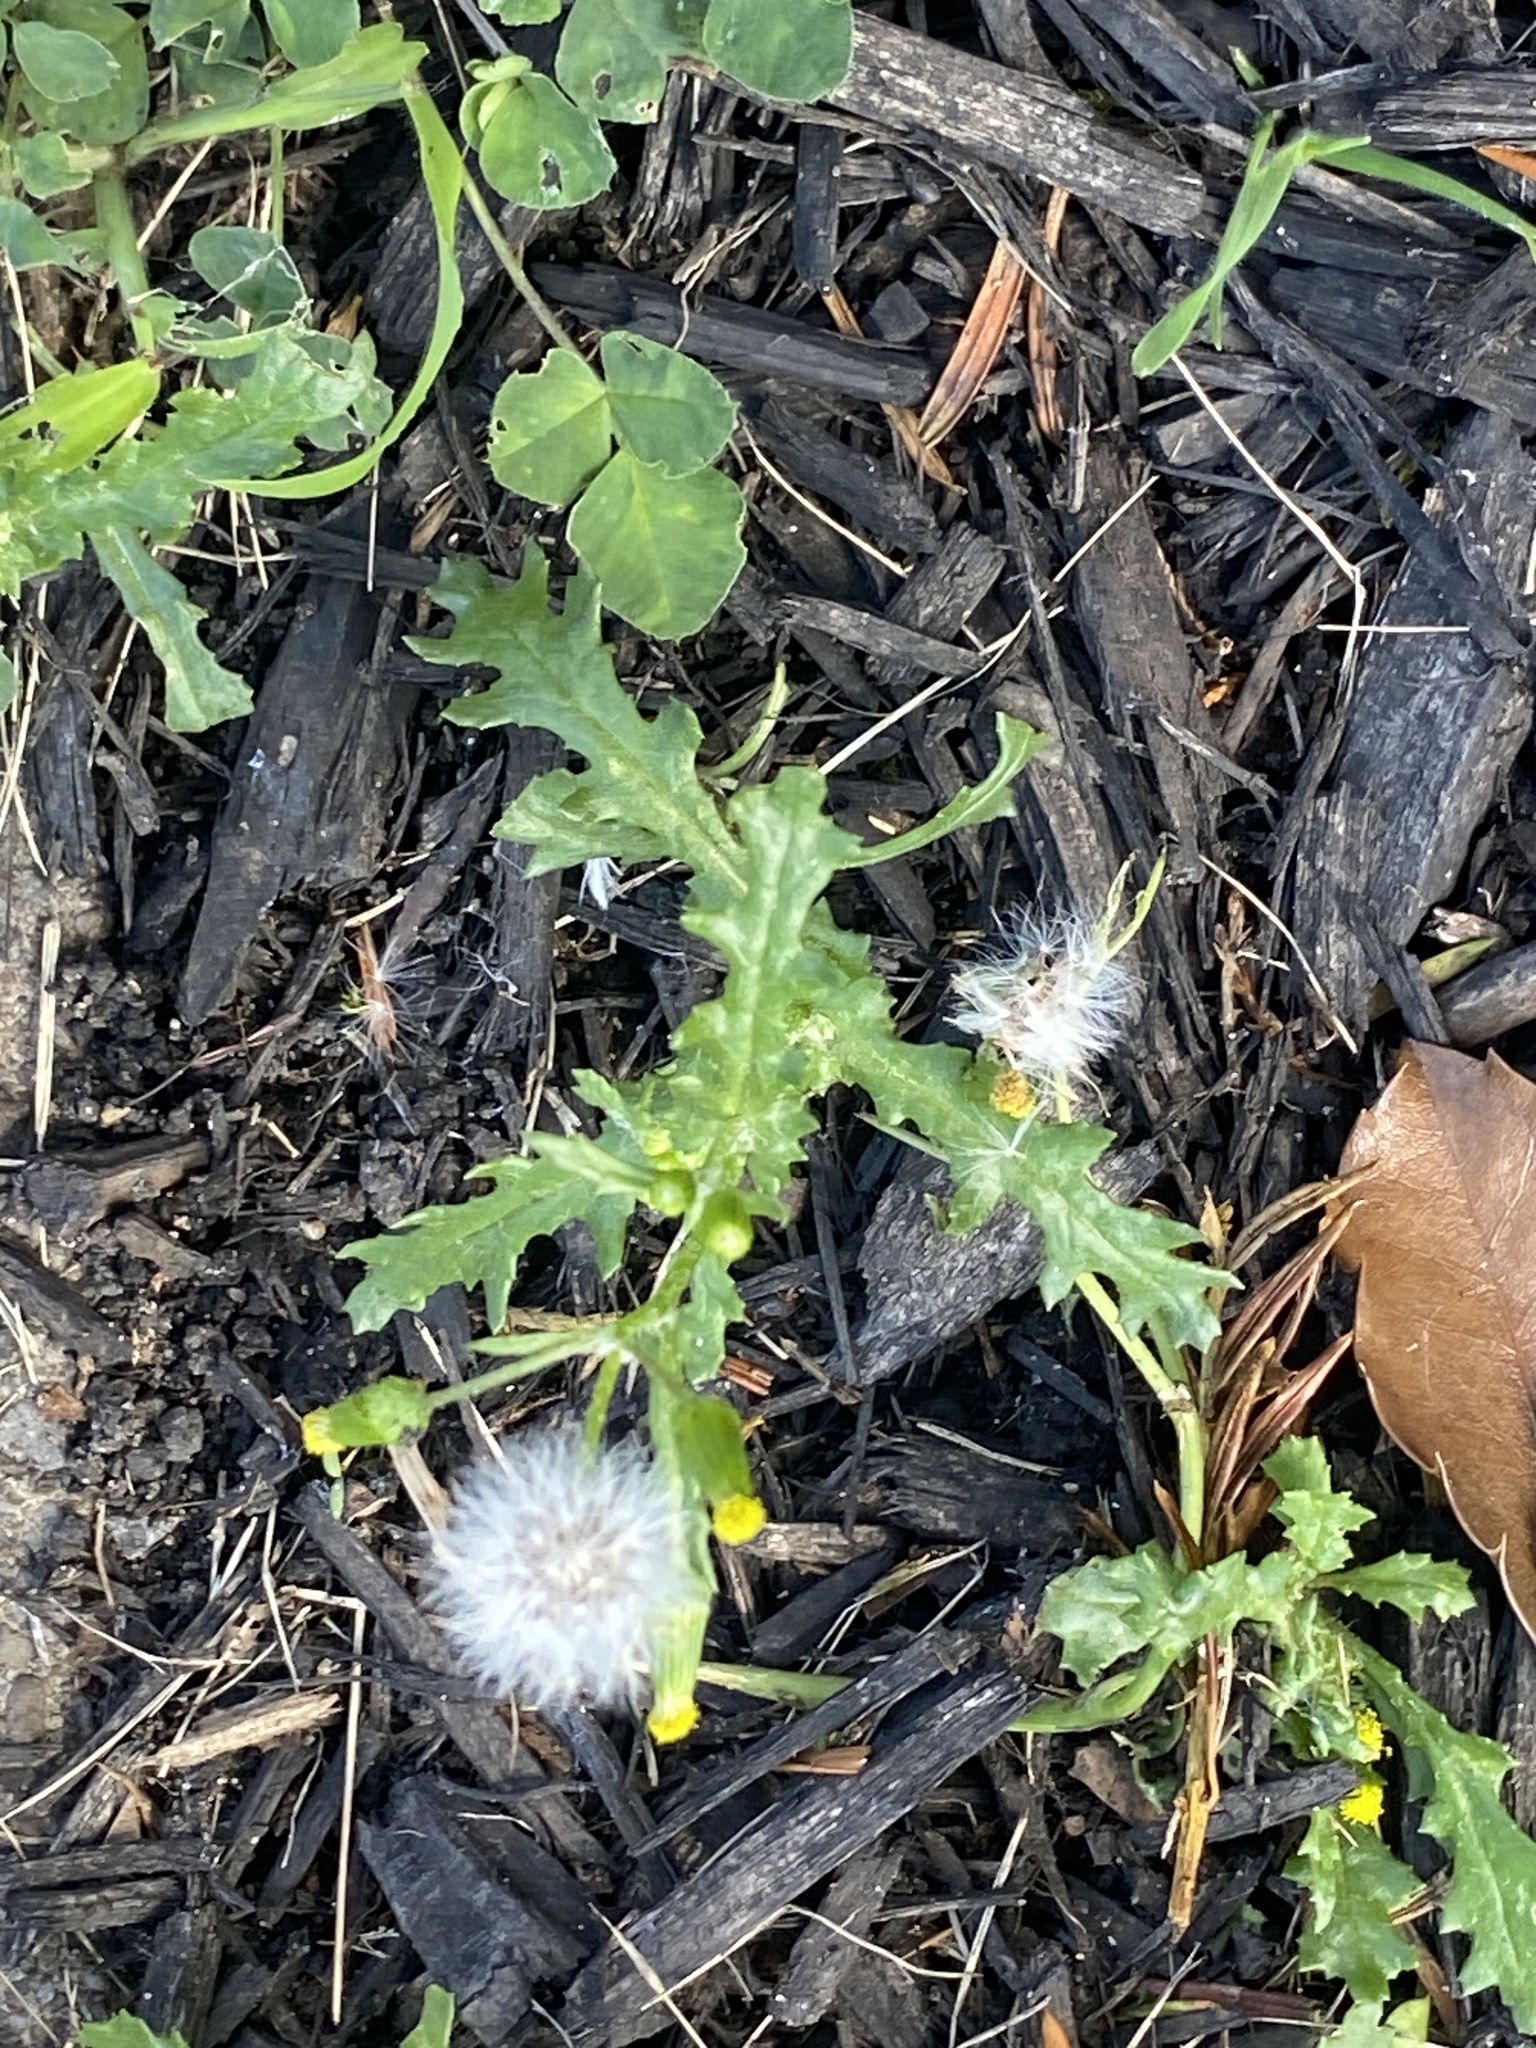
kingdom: Plantae
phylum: Tracheophyta
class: Magnoliopsida
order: Asterales
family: Asteraceae
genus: Senecio
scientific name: Senecio vulgaris
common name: Old-man-in-the-spring
